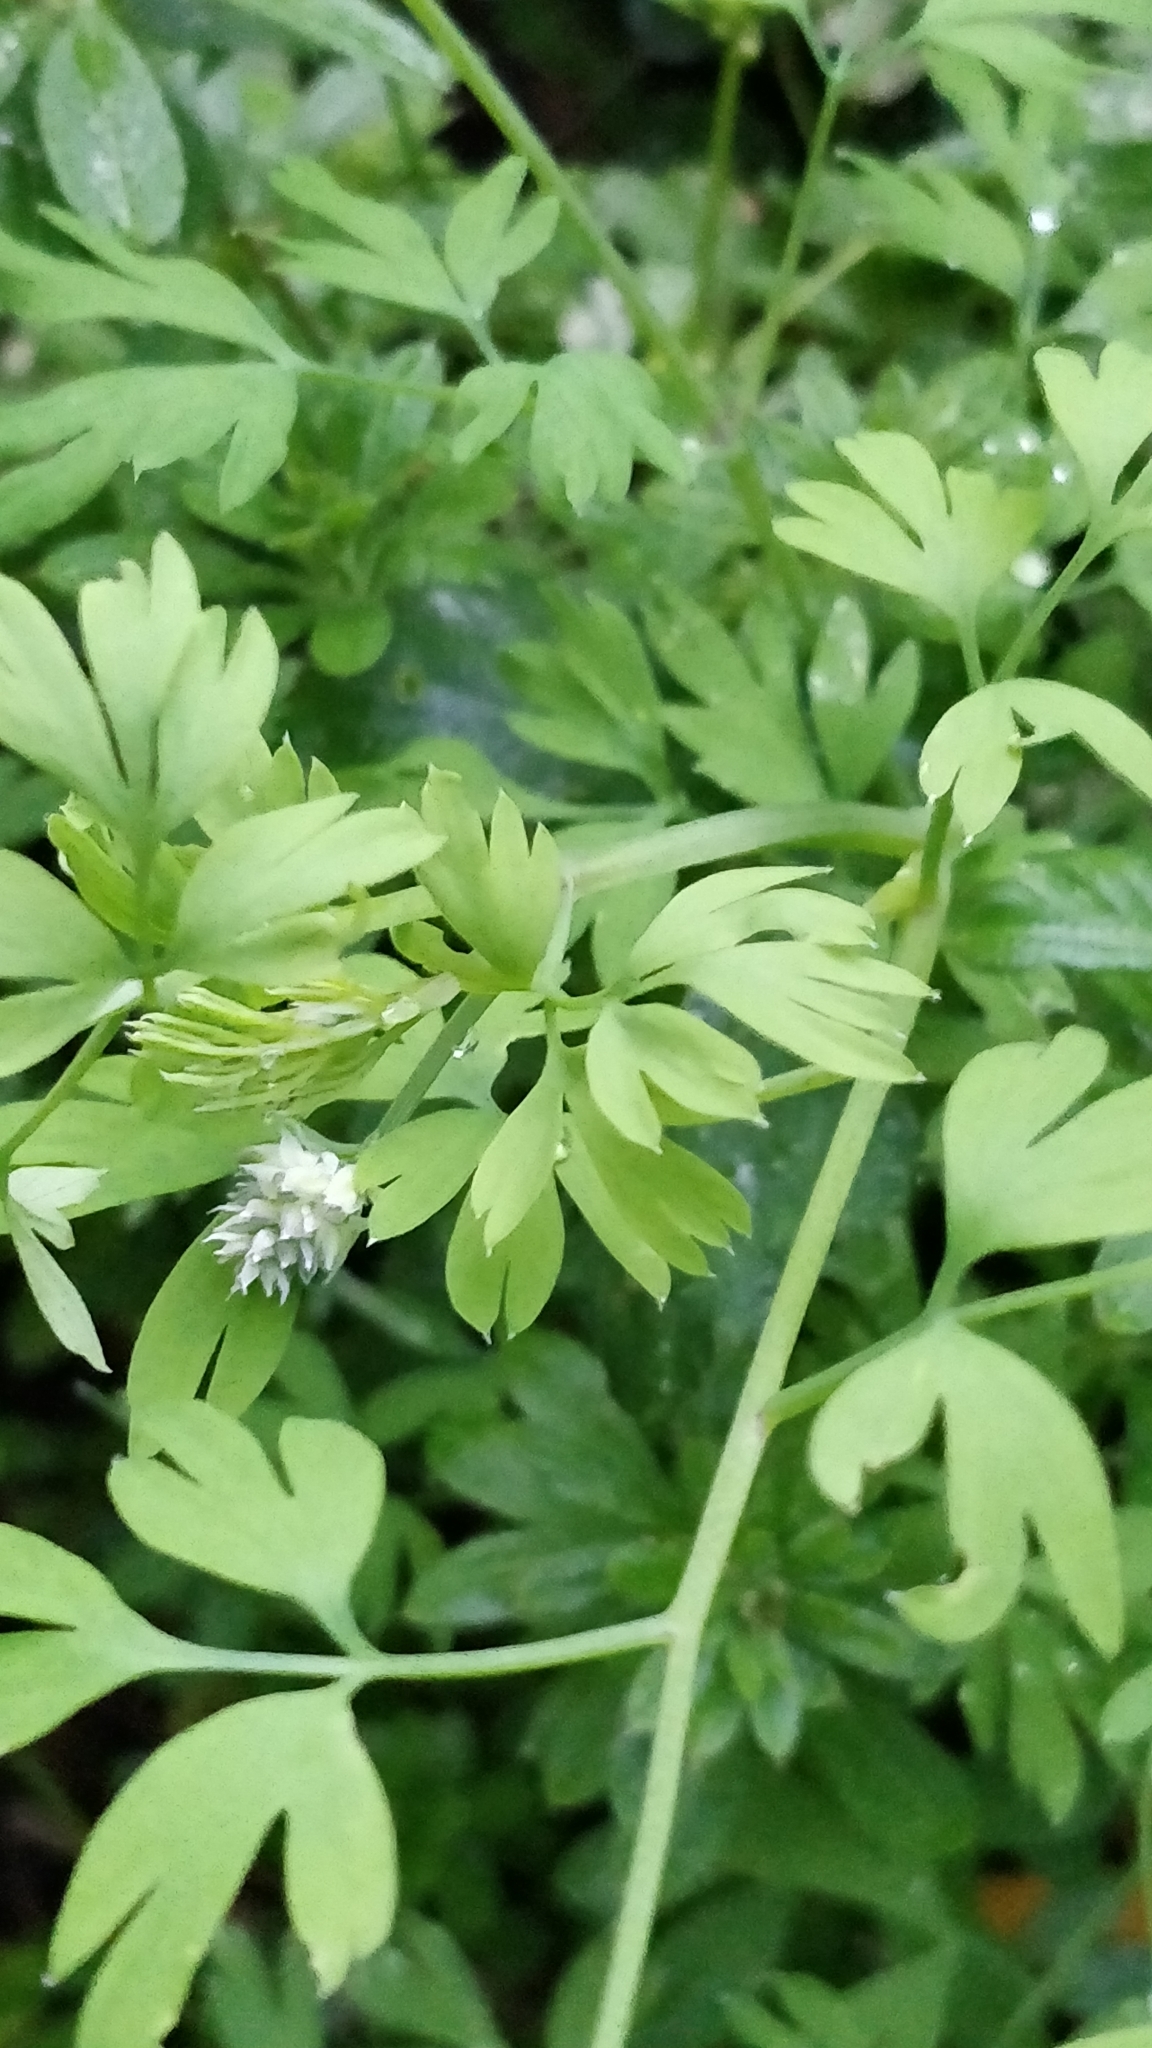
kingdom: Plantae
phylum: Tracheophyta
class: Magnoliopsida
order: Ranunculales
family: Papaveraceae
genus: Fumaria
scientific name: Fumaria capreolata
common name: White ramping-fumitory
